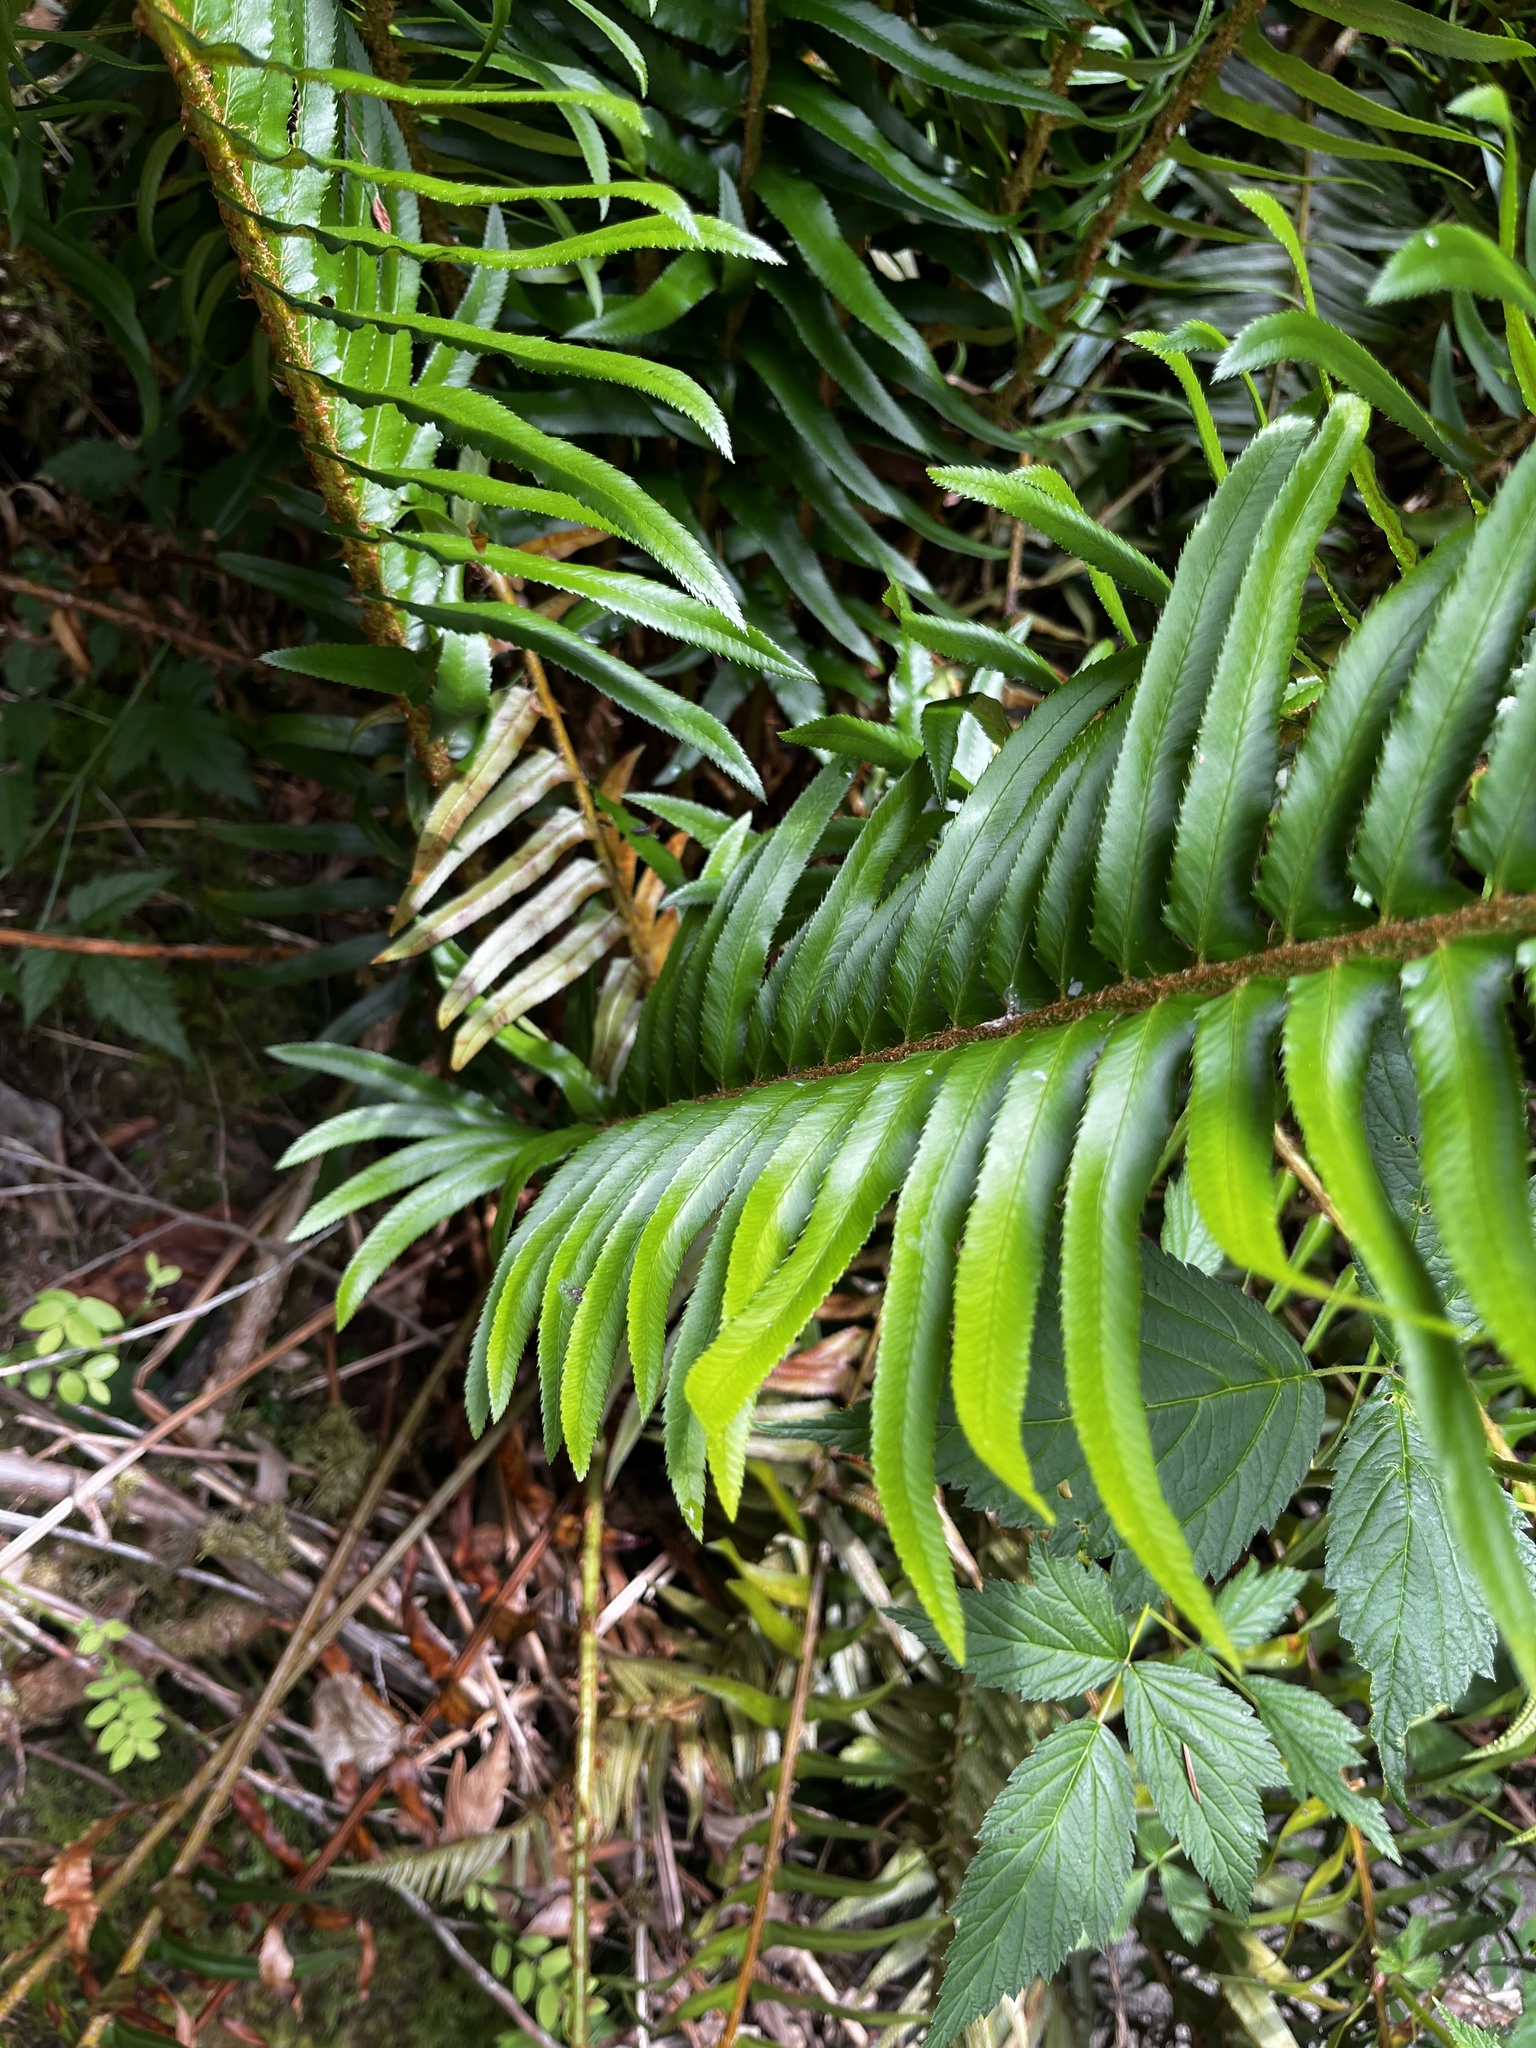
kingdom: Plantae
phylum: Tracheophyta
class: Polypodiopsida
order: Polypodiales
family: Dryopteridaceae
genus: Polystichum
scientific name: Polystichum munitum
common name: Western sword-fern
